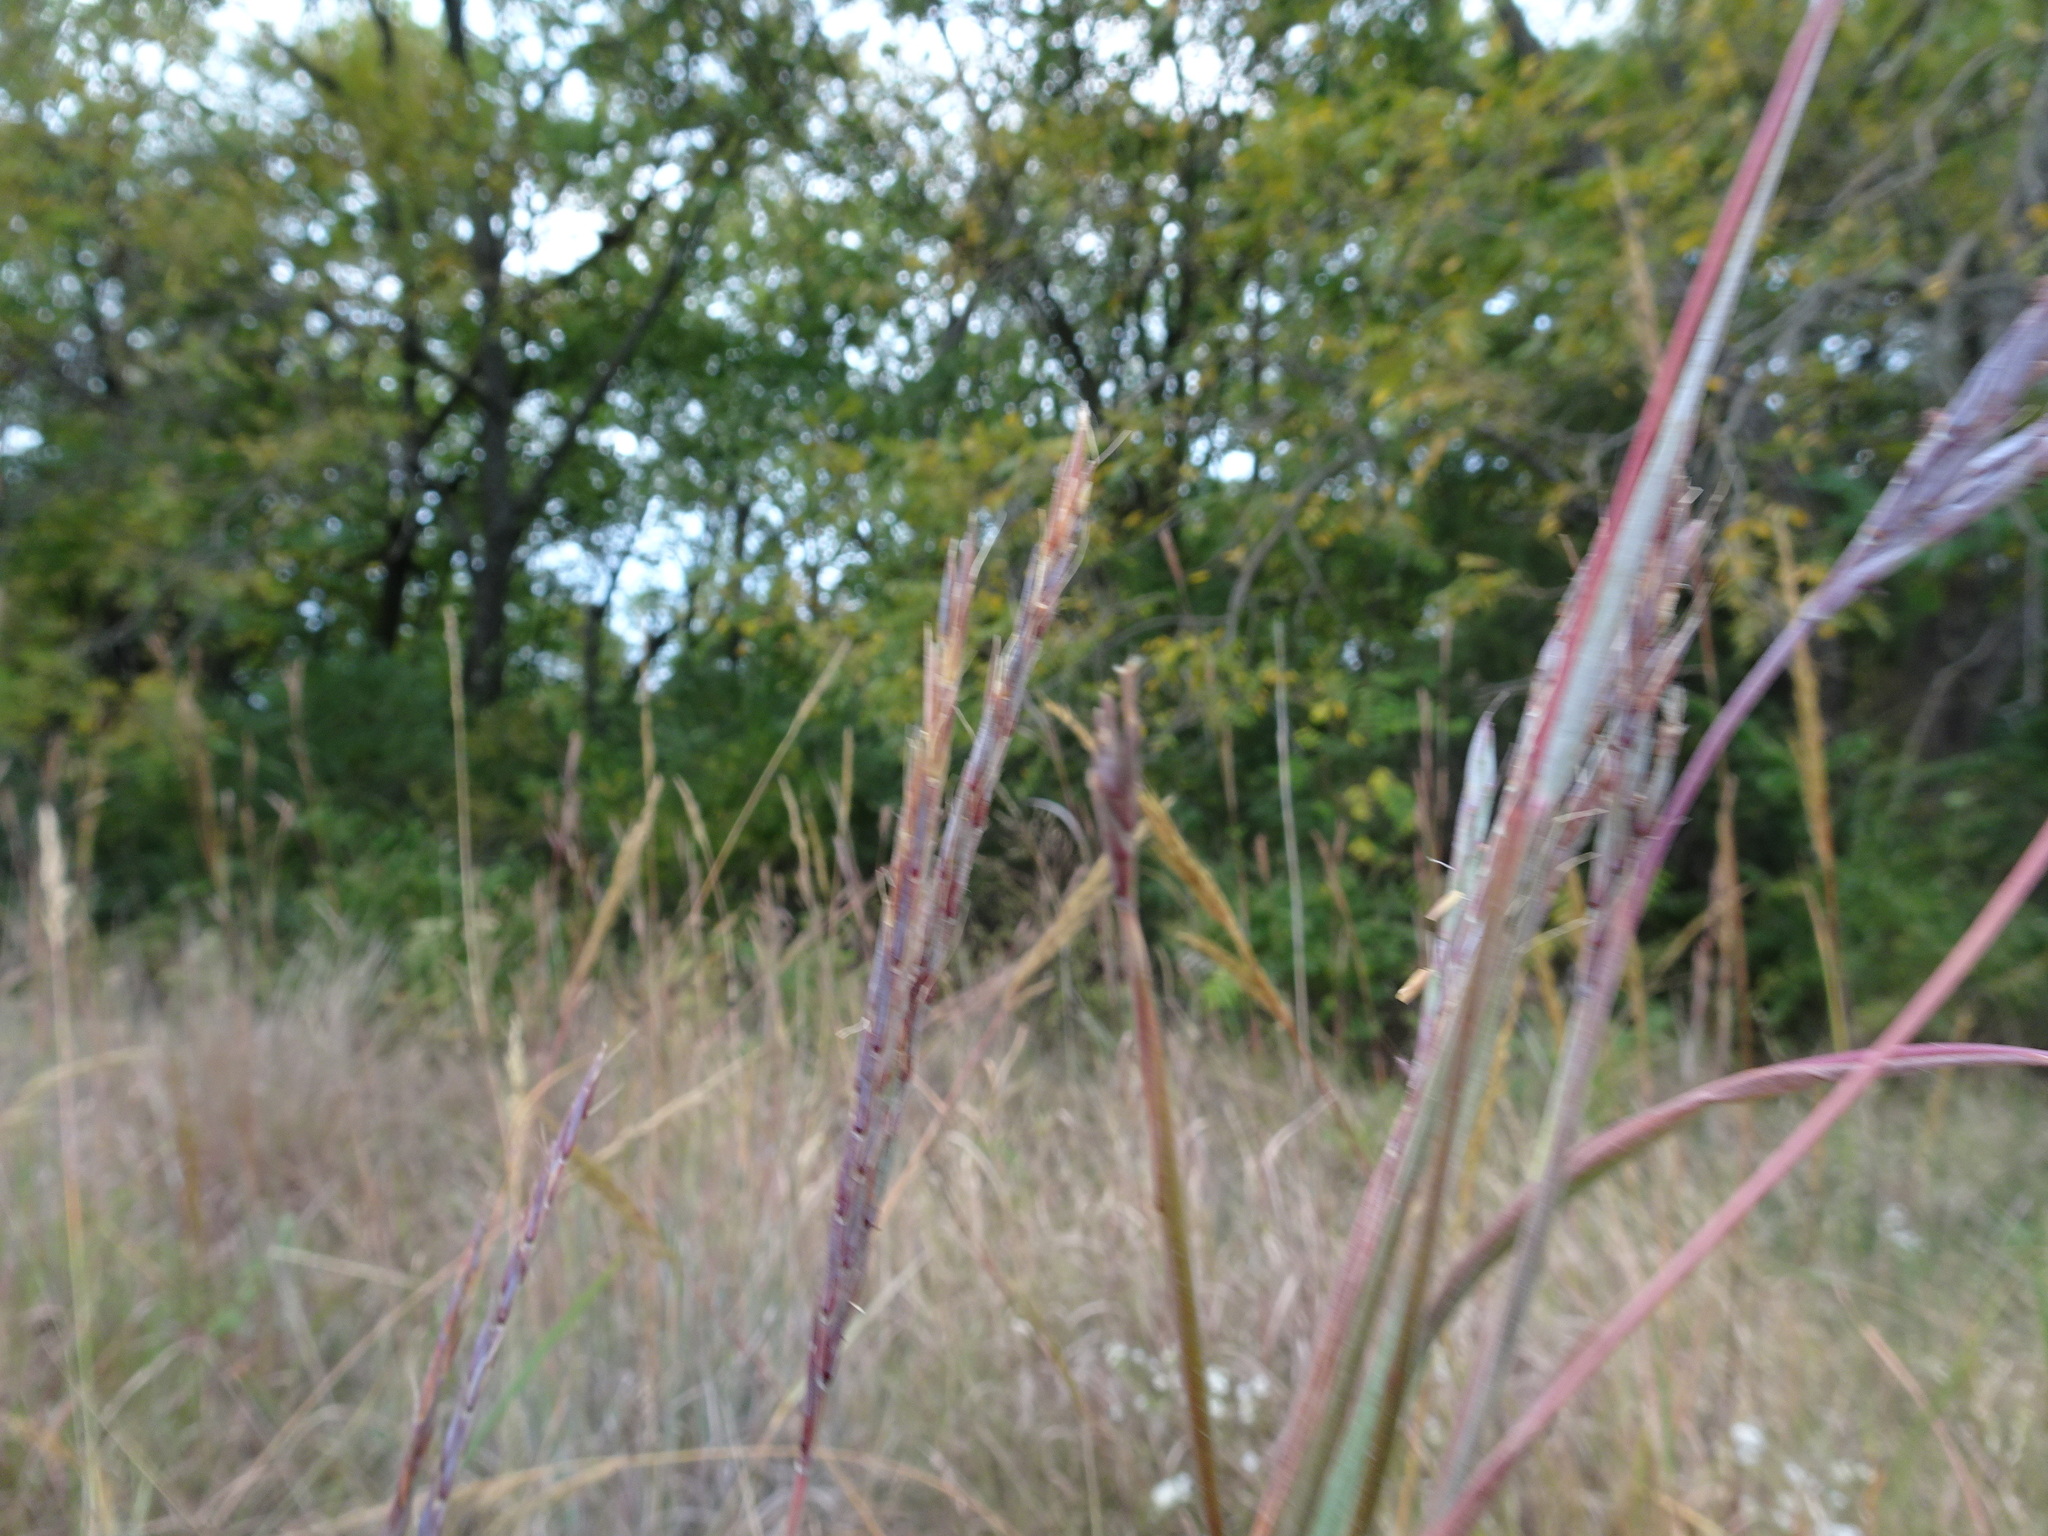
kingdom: Plantae
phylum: Tracheophyta
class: Liliopsida
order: Poales
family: Poaceae
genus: Andropogon
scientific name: Andropogon gerardi
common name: Big bluestem
